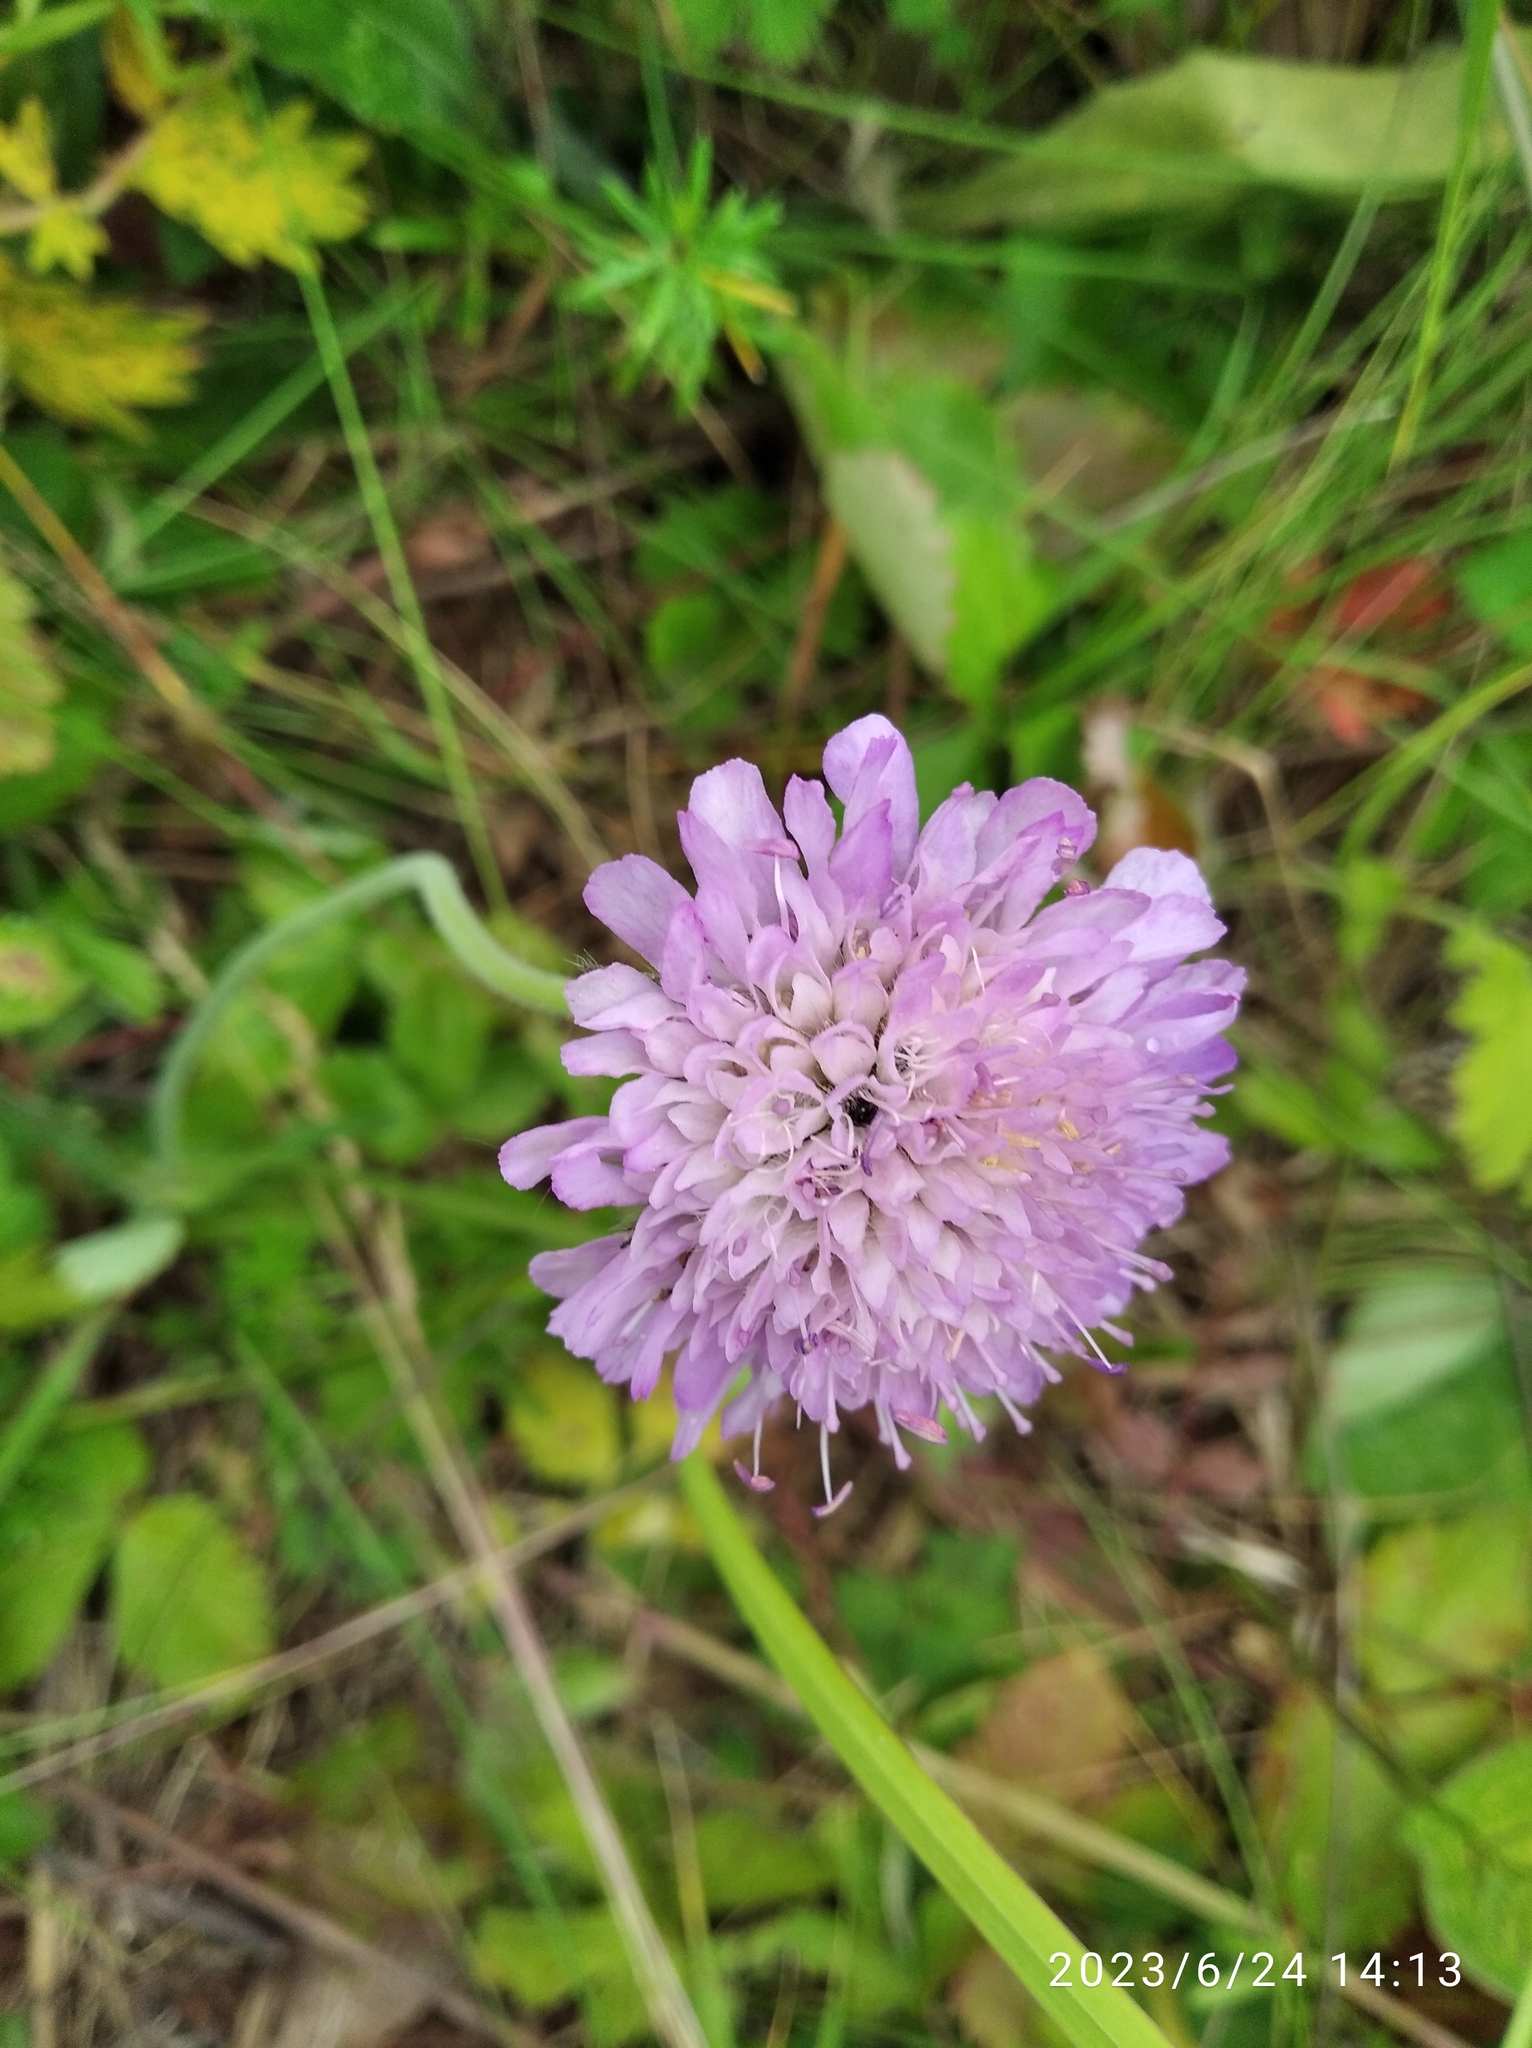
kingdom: Plantae
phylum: Tracheophyta
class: Magnoliopsida
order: Dipsacales
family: Caprifoliaceae
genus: Knautia
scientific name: Knautia arvensis
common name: Field scabiosa
